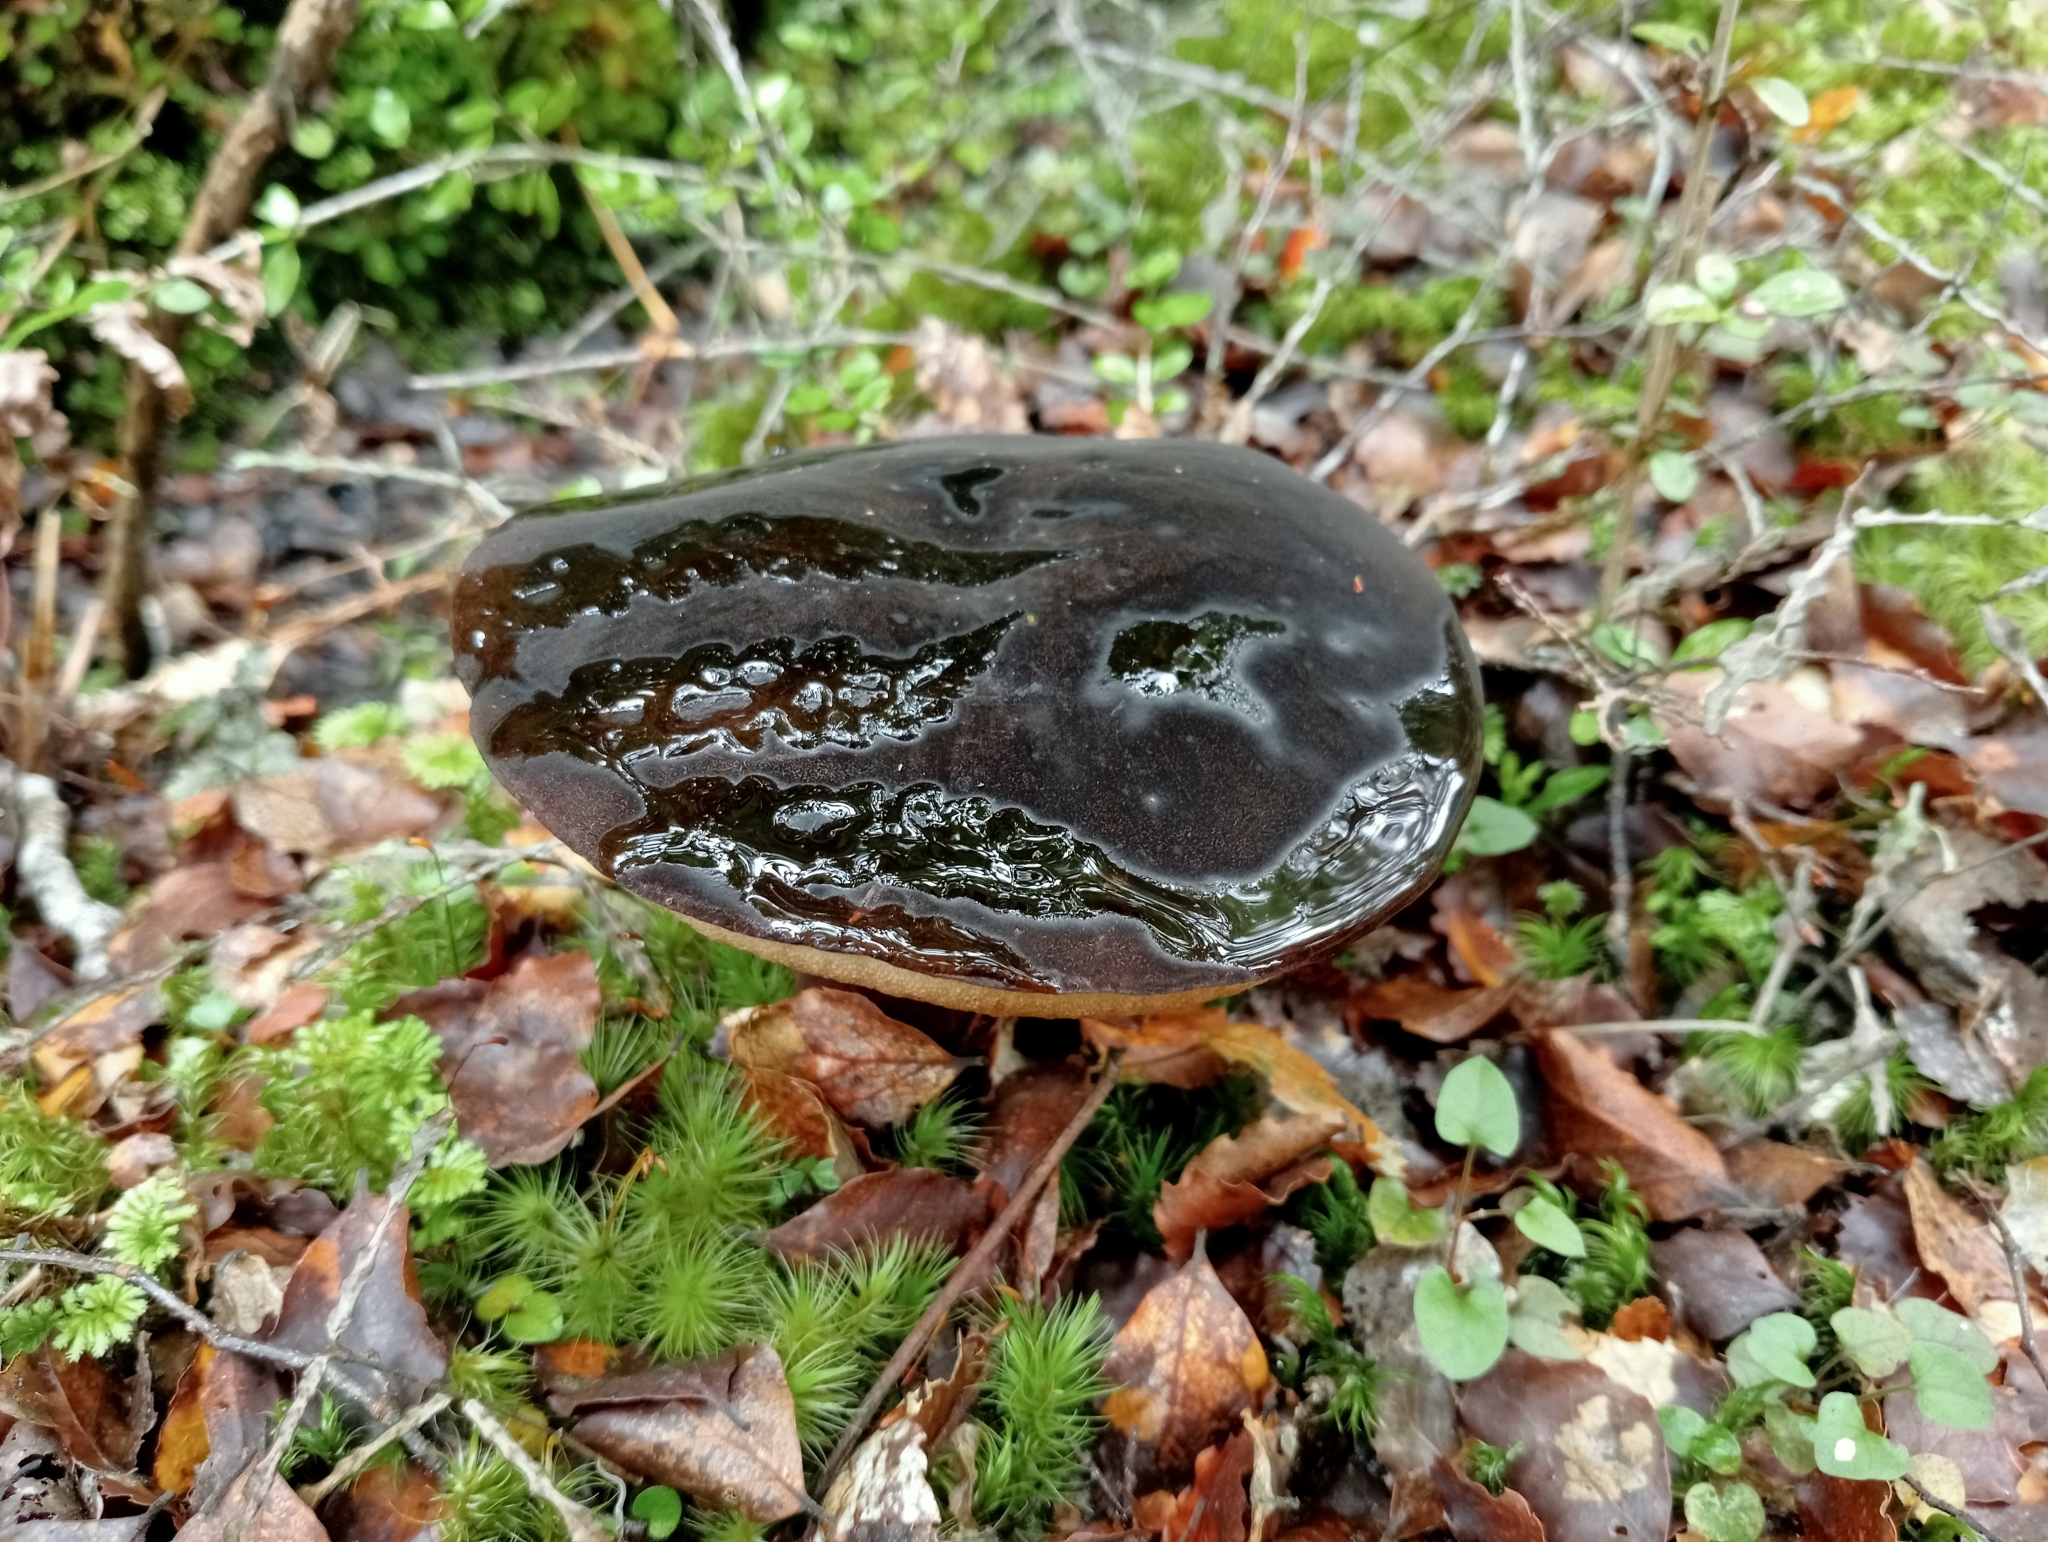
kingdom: Fungi
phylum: Basidiomycota
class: Agaricomycetes
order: Boletales
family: Boletaceae
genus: Porphyrellus
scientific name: Porphyrellus formosus
